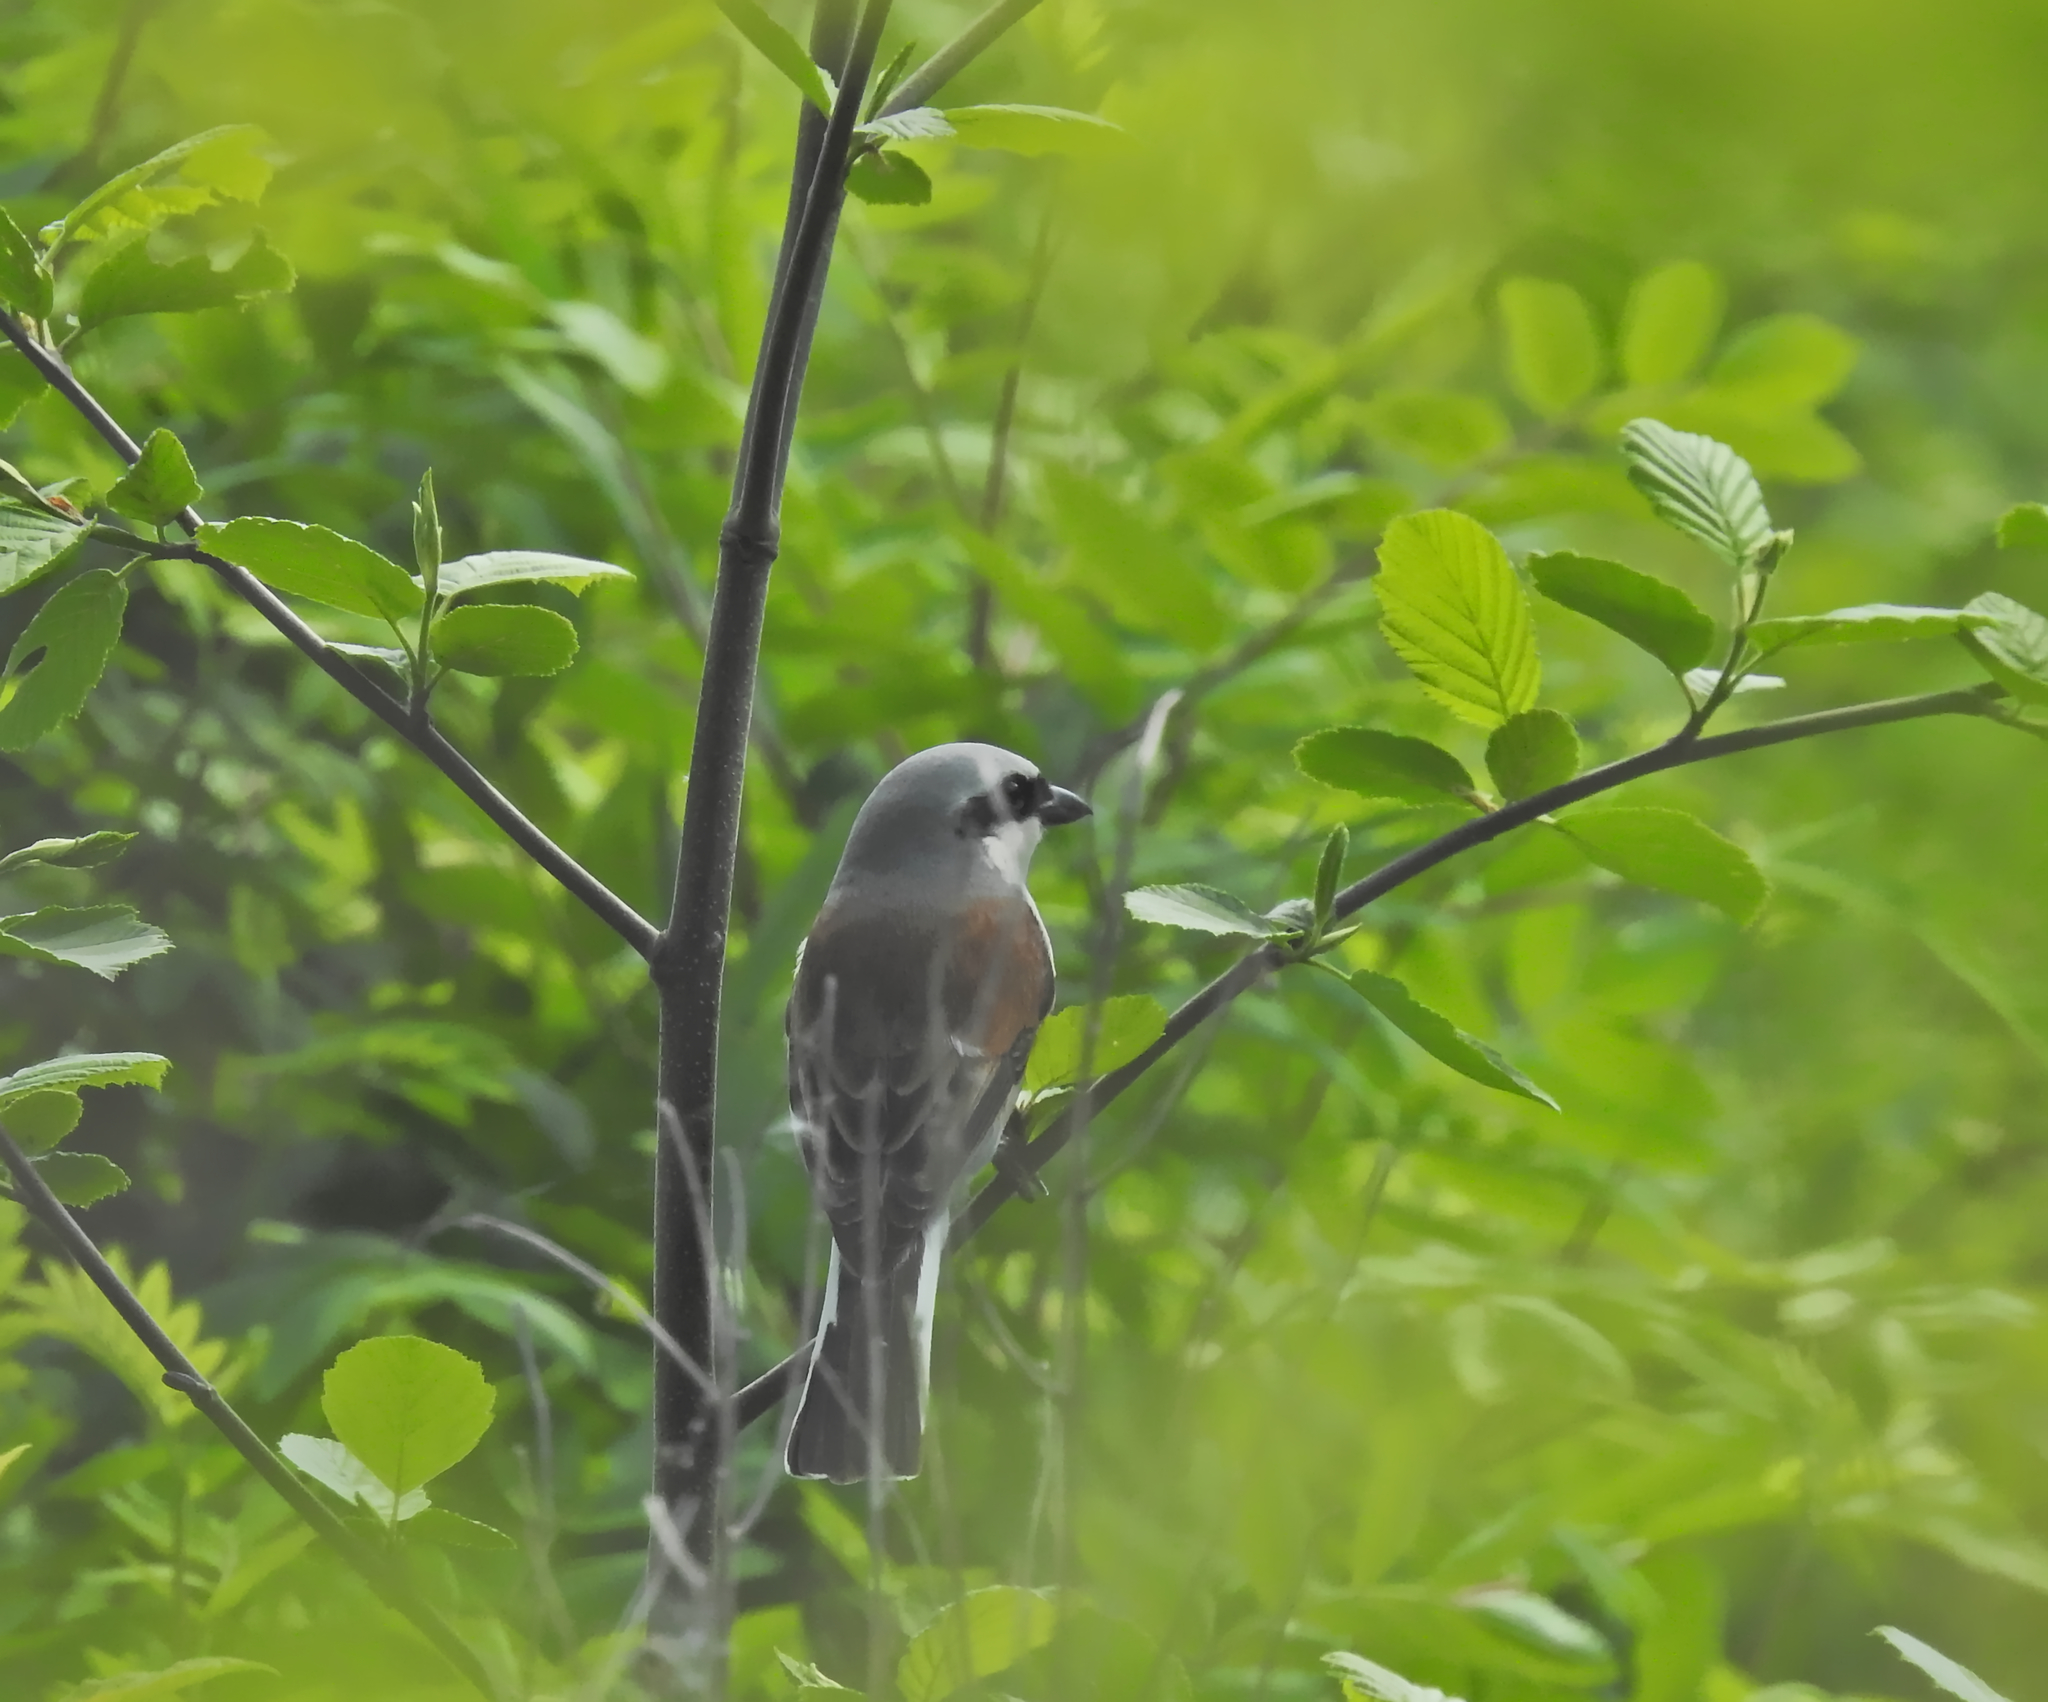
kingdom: Animalia
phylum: Chordata
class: Aves
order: Passeriformes
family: Laniidae
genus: Lanius
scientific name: Lanius collurio
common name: Red-backed shrike
